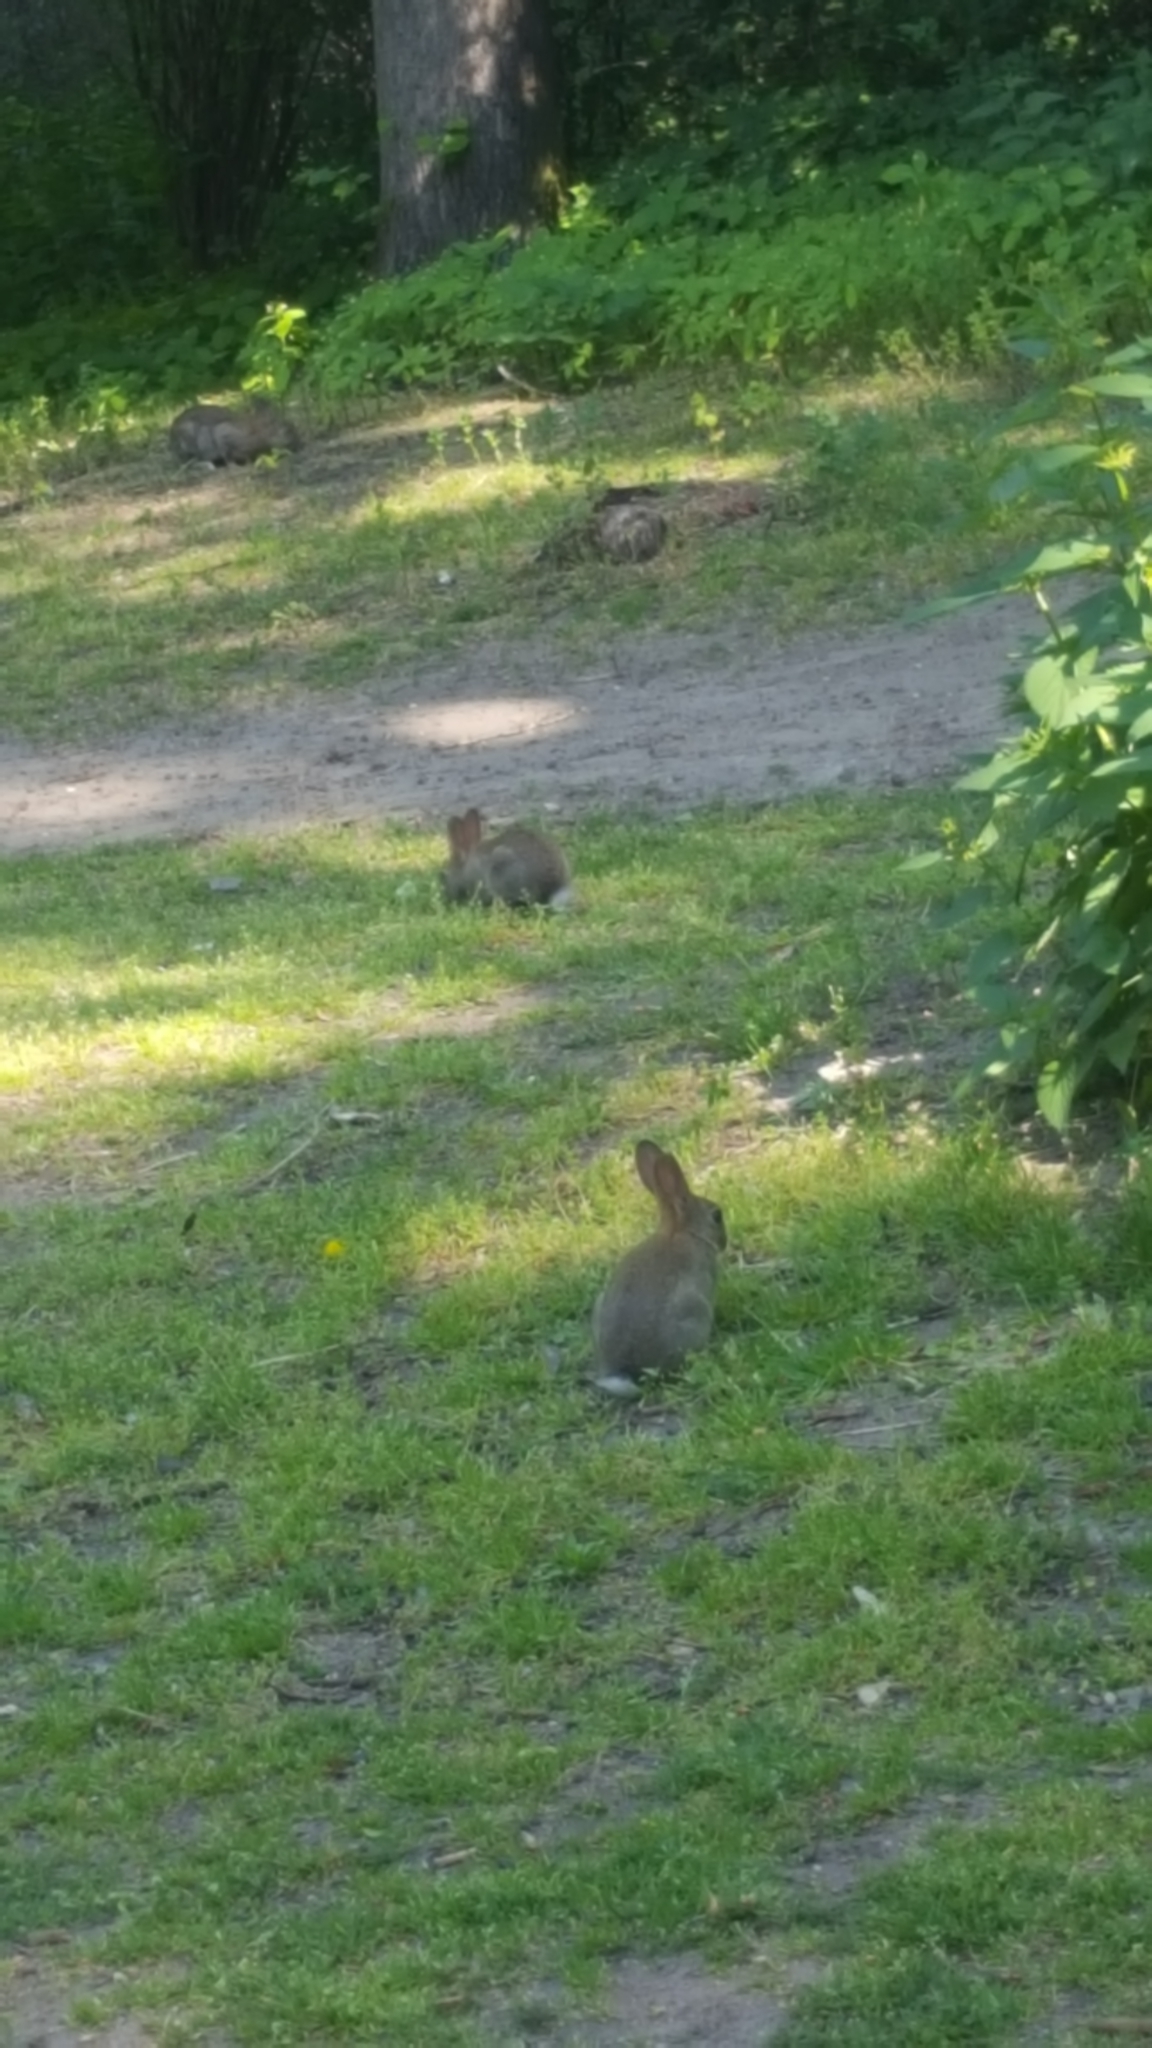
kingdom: Animalia
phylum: Chordata
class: Mammalia
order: Lagomorpha
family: Leporidae
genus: Oryctolagus
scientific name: Oryctolagus cuniculus
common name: European rabbit
